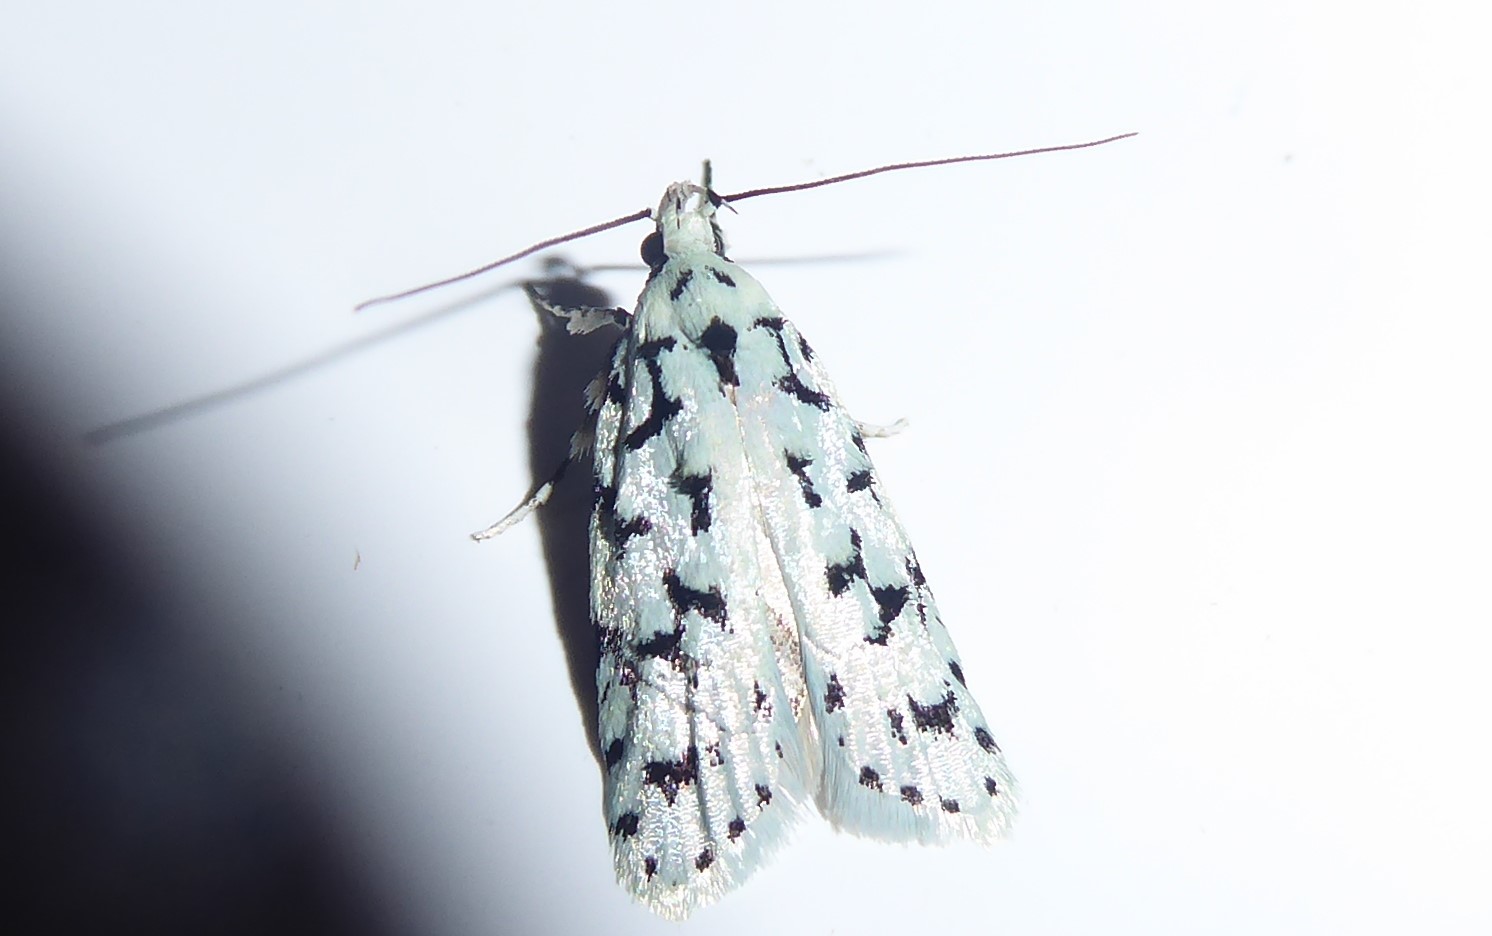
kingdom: Animalia
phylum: Arthropoda
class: Insecta
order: Lepidoptera
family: Oecophoridae
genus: Izatha
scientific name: Izatha huttoni
